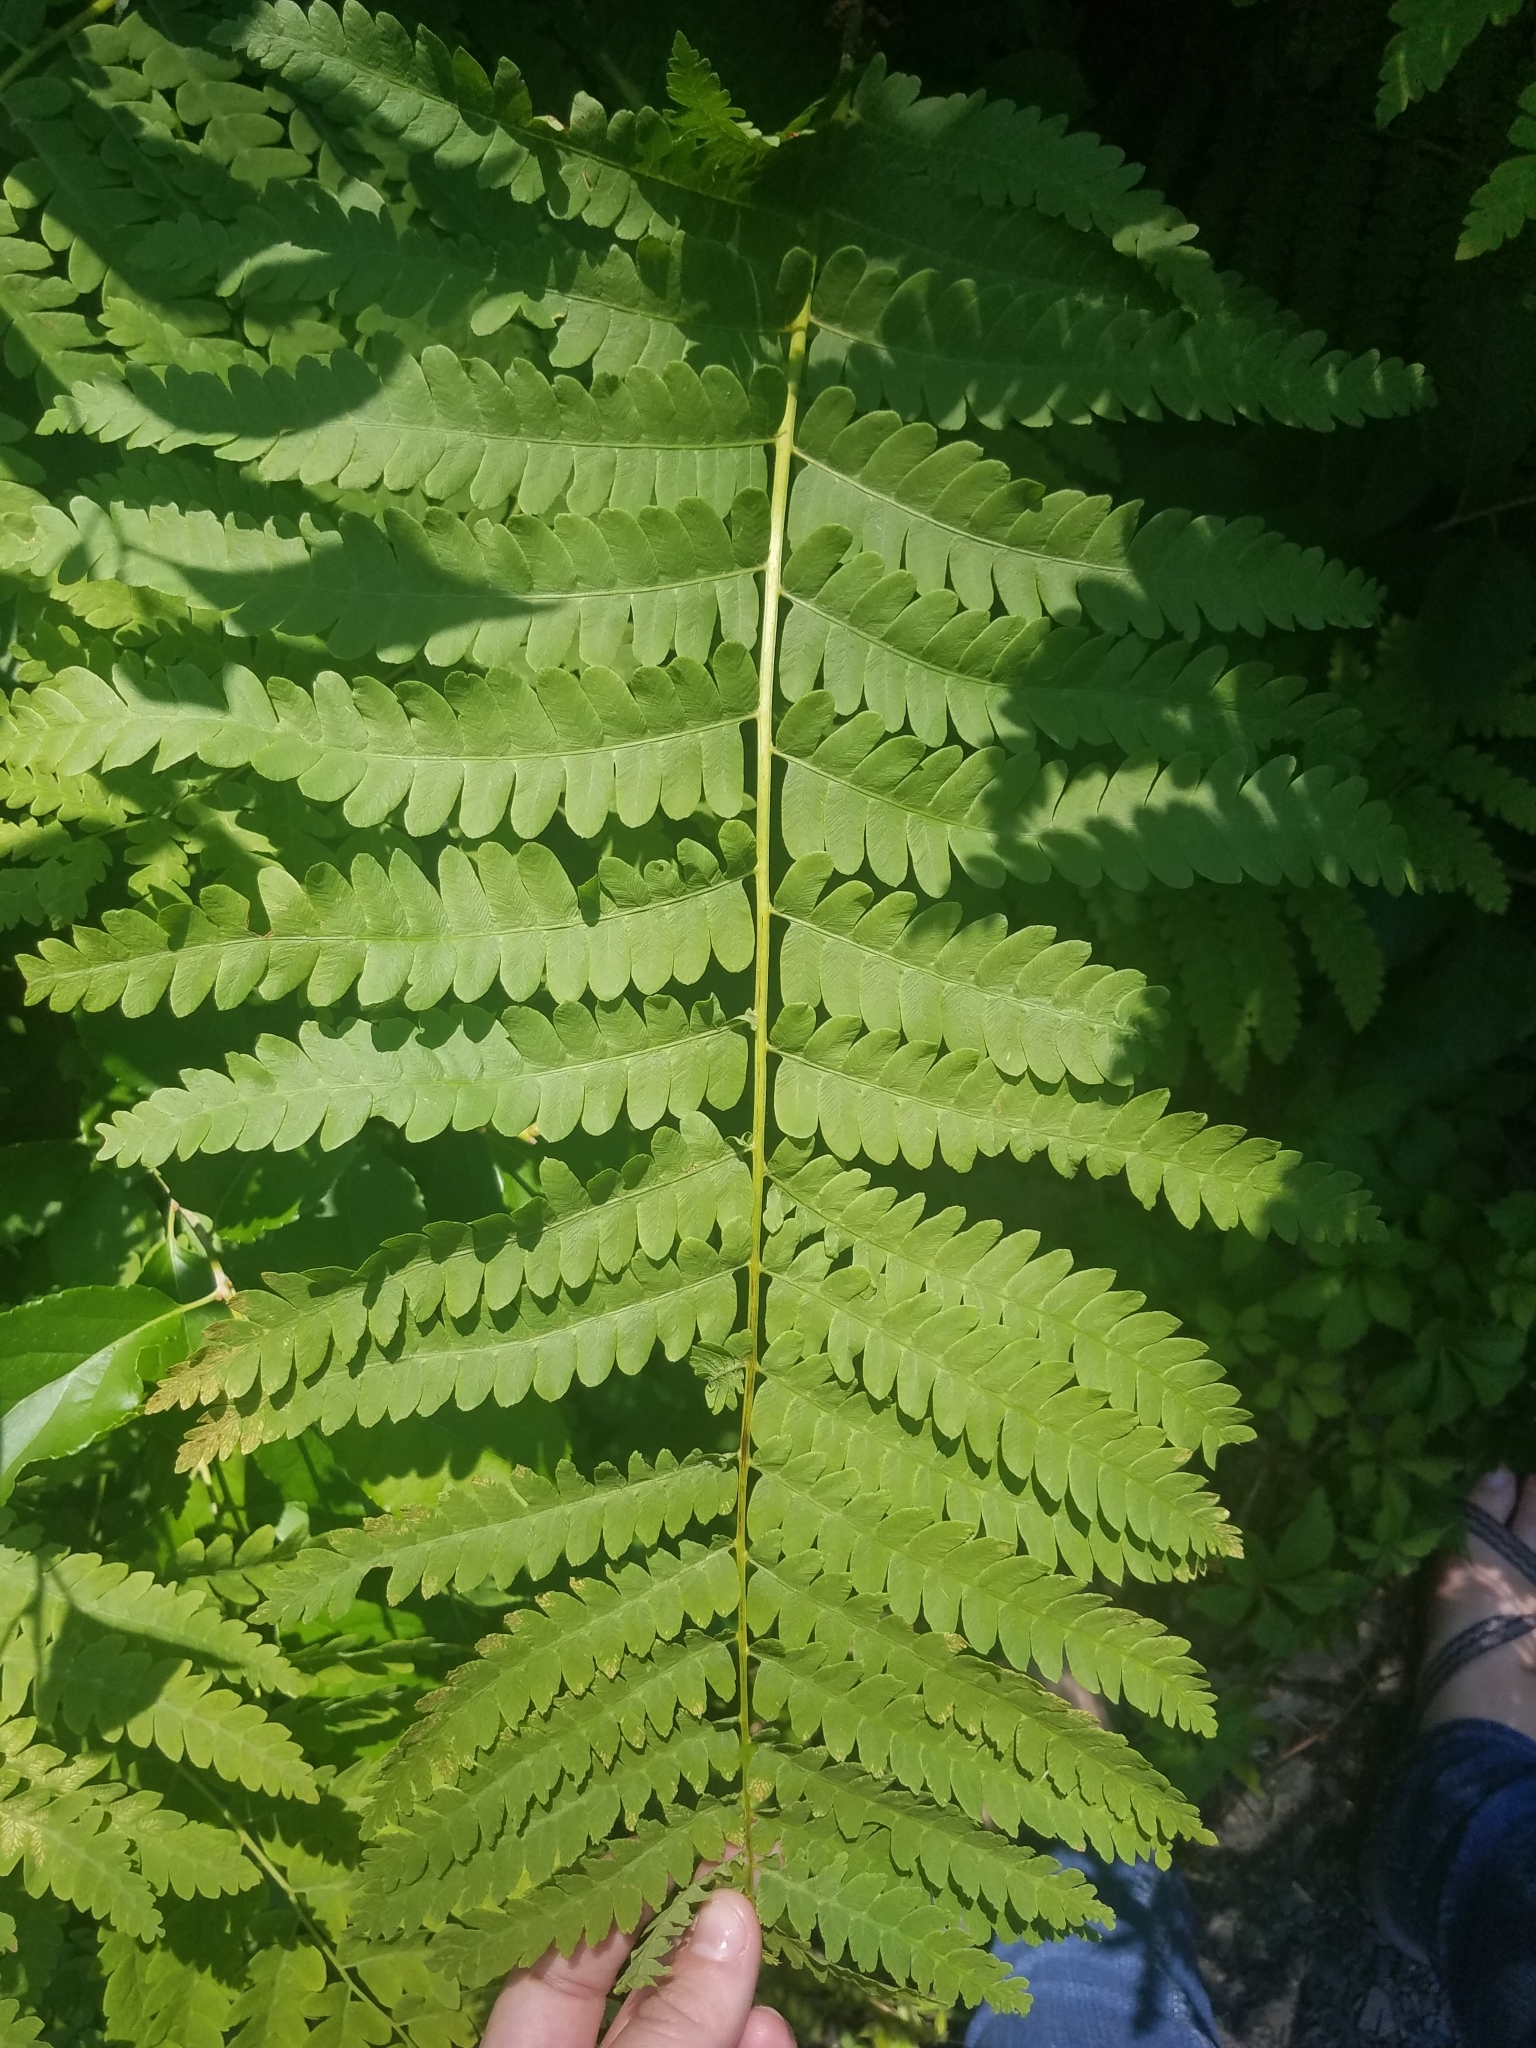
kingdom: Plantae
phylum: Tracheophyta
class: Polypodiopsida
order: Osmundales
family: Osmundaceae
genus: Claytosmunda
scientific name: Claytosmunda claytoniana
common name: Clayton's fern
